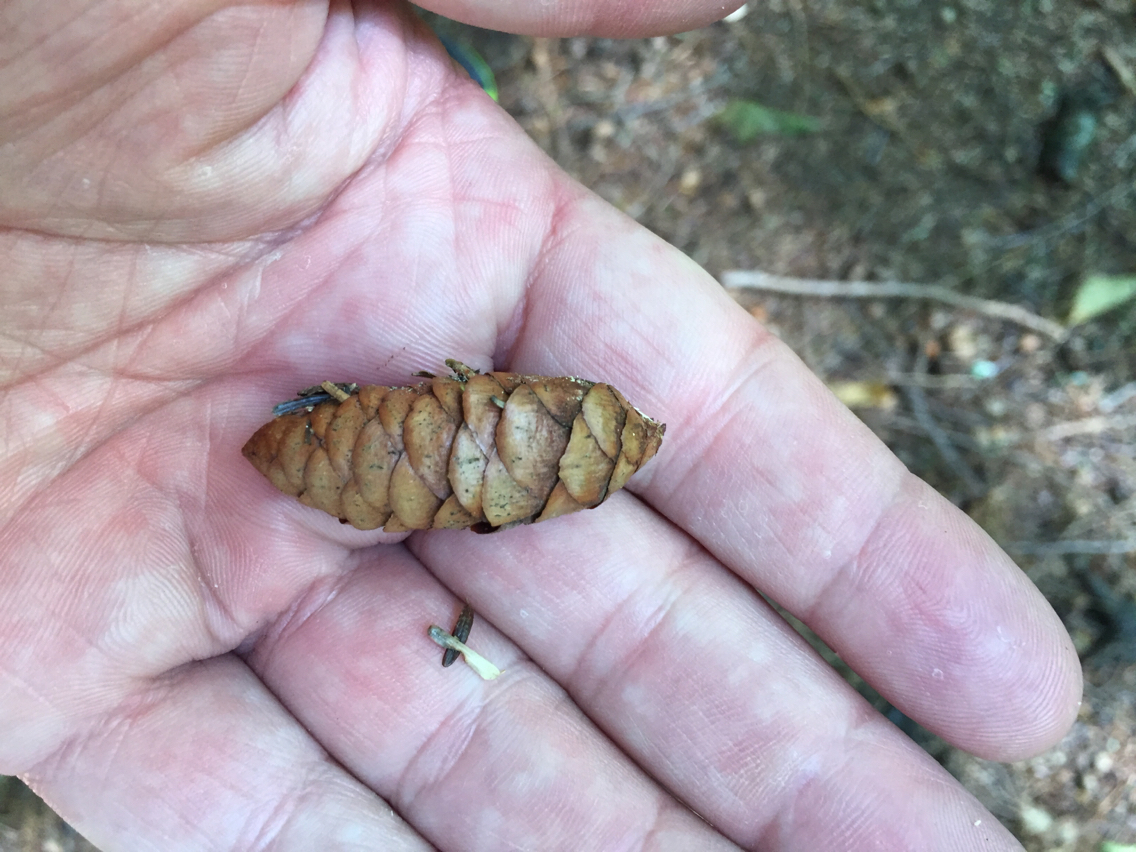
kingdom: Plantae
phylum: Tracheophyta
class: Pinopsida
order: Pinales
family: Pinaceae
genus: Picea
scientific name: Picea rubens
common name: Red spruce
